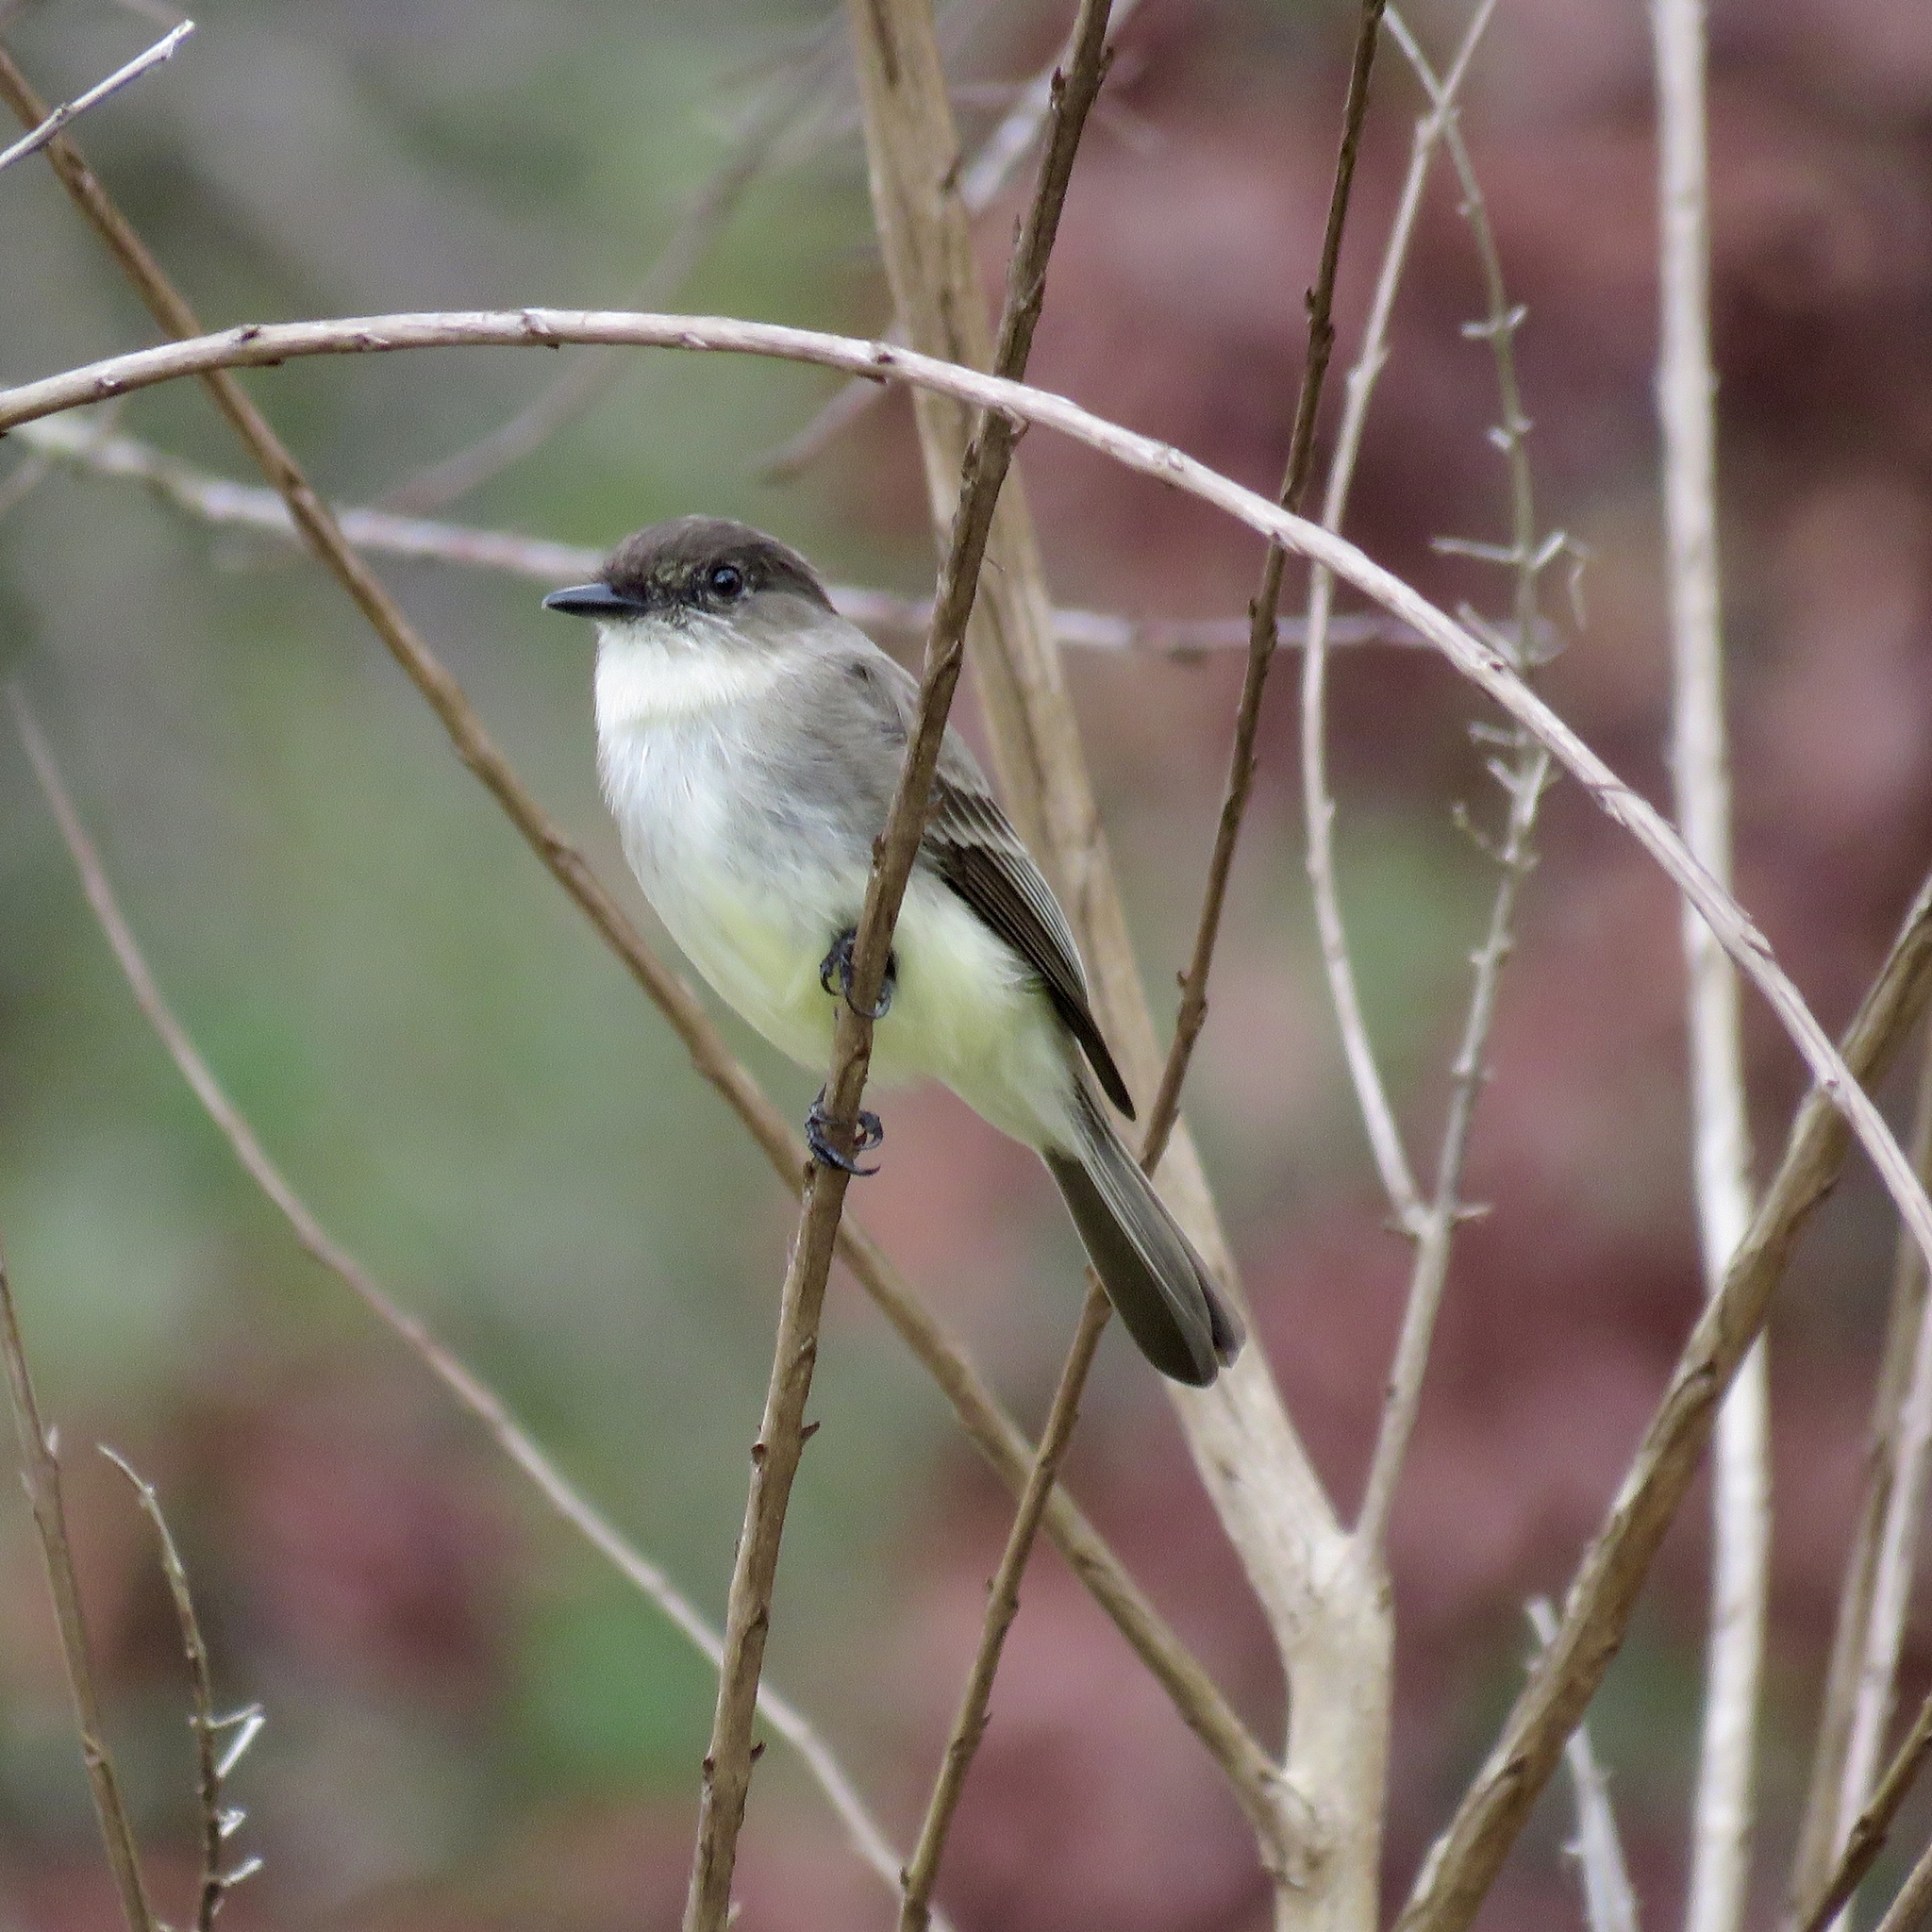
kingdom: Animalia
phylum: Chordata
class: Aves
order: Passeriformes
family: Tyrannidae
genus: Sayornis
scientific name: Sayornis phoebe
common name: Eastern phoebe
